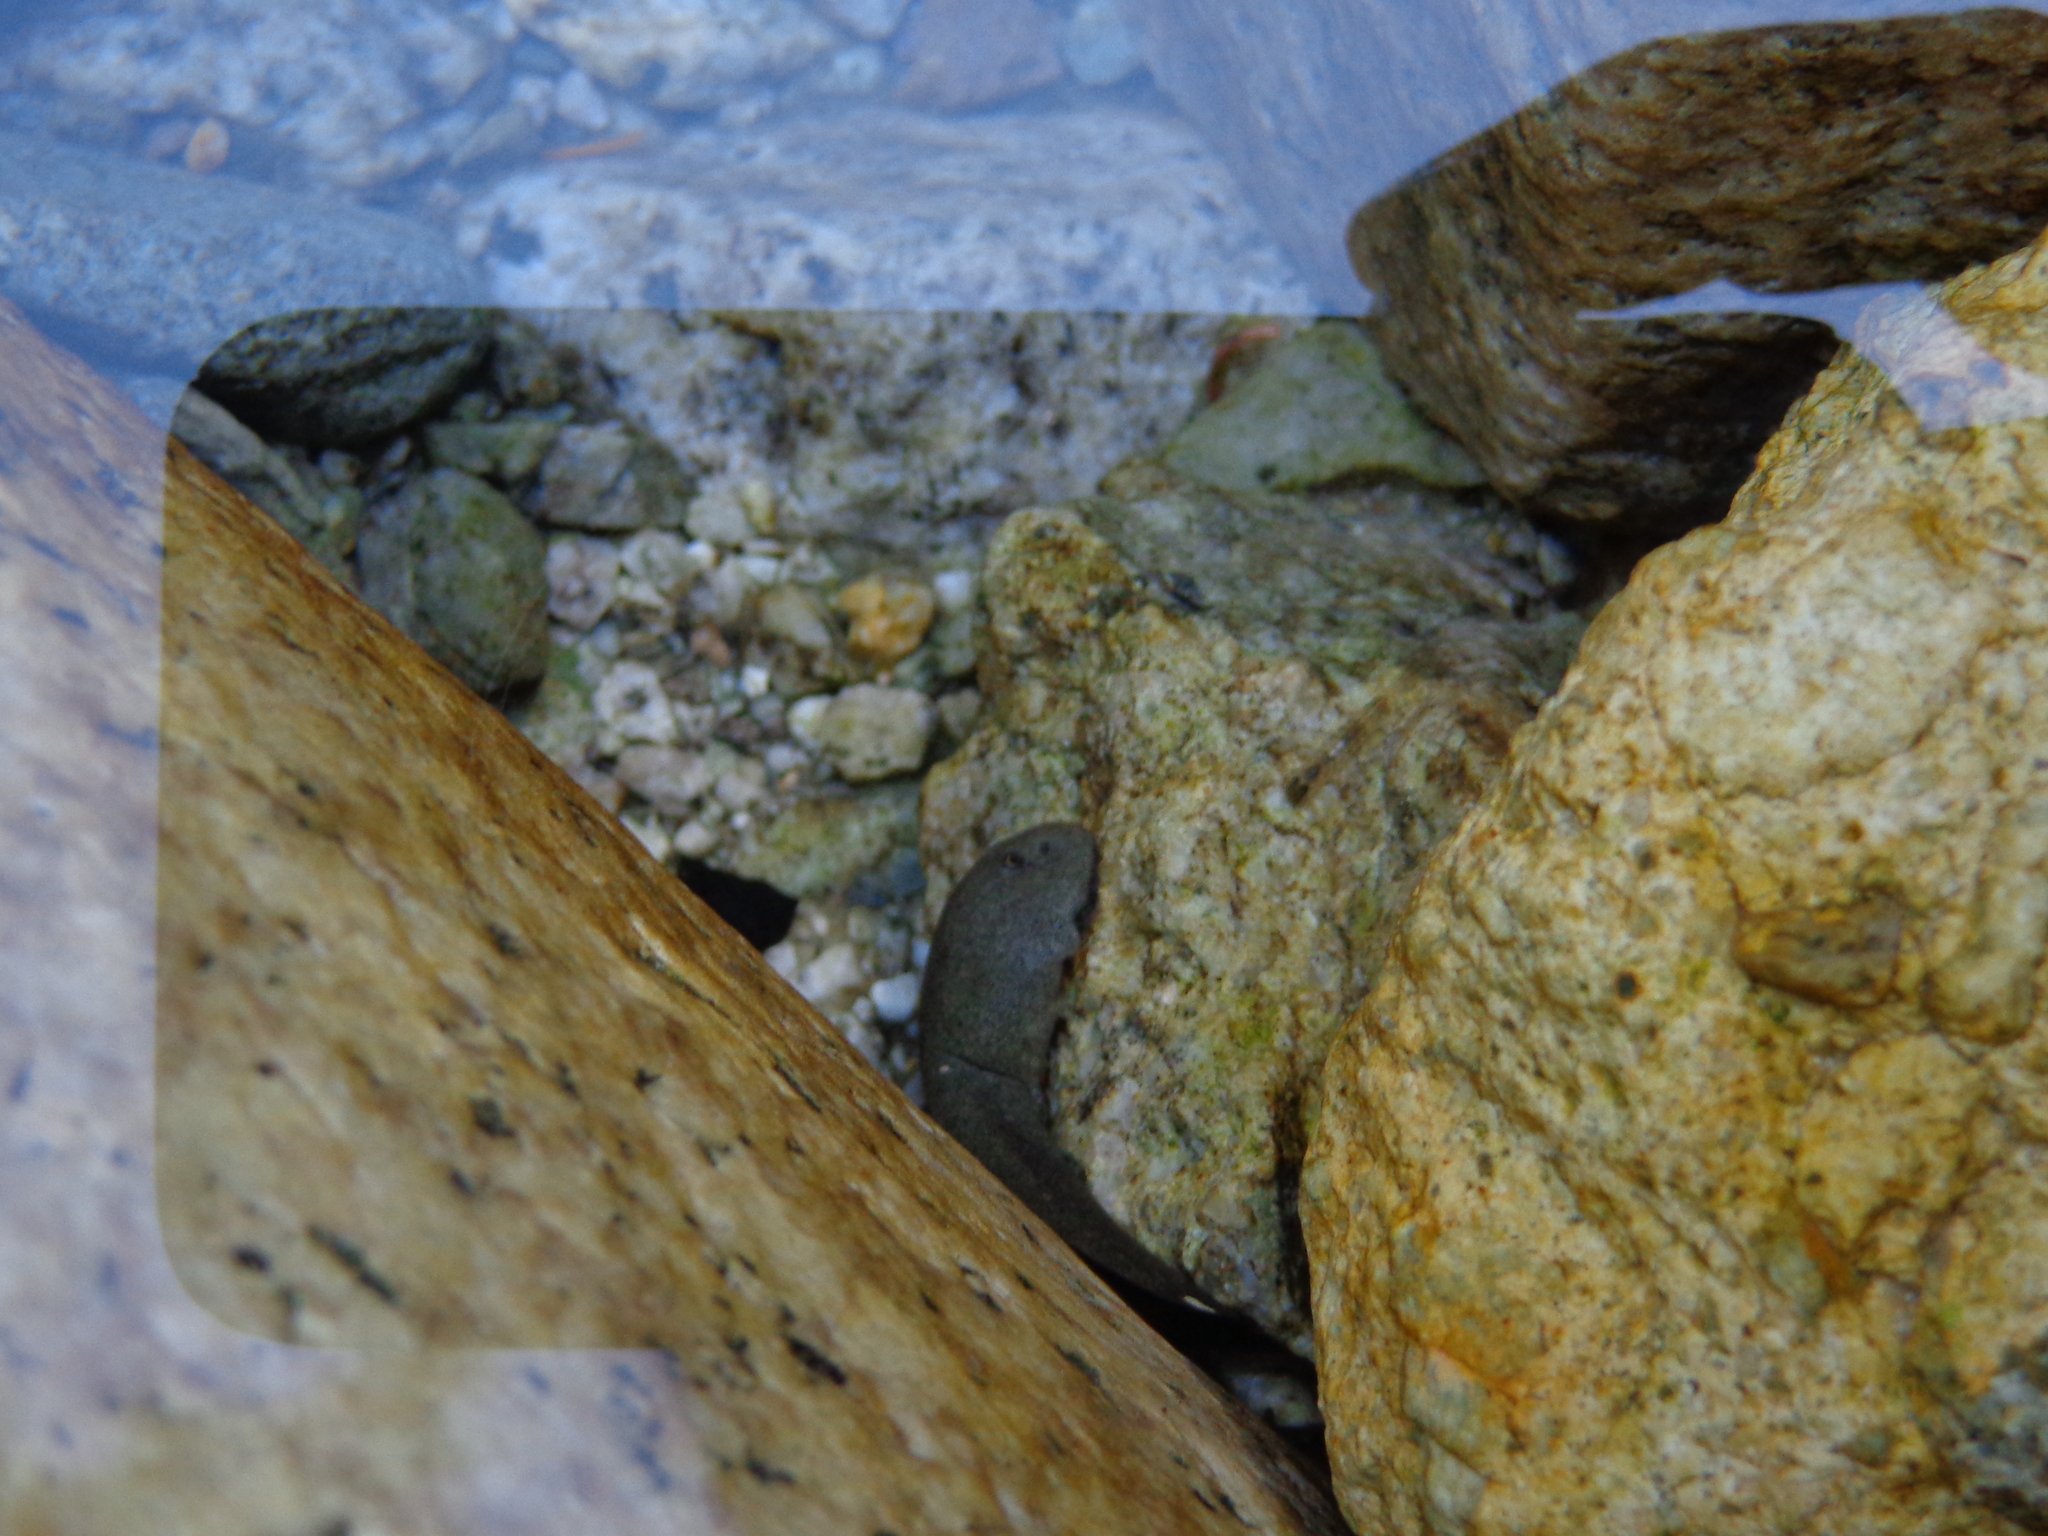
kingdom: Animalia
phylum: Chordata
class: Amphibia
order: Anura
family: Ascaphidae
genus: Ascaphus
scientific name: Ascaphus truei
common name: Tailed frog
